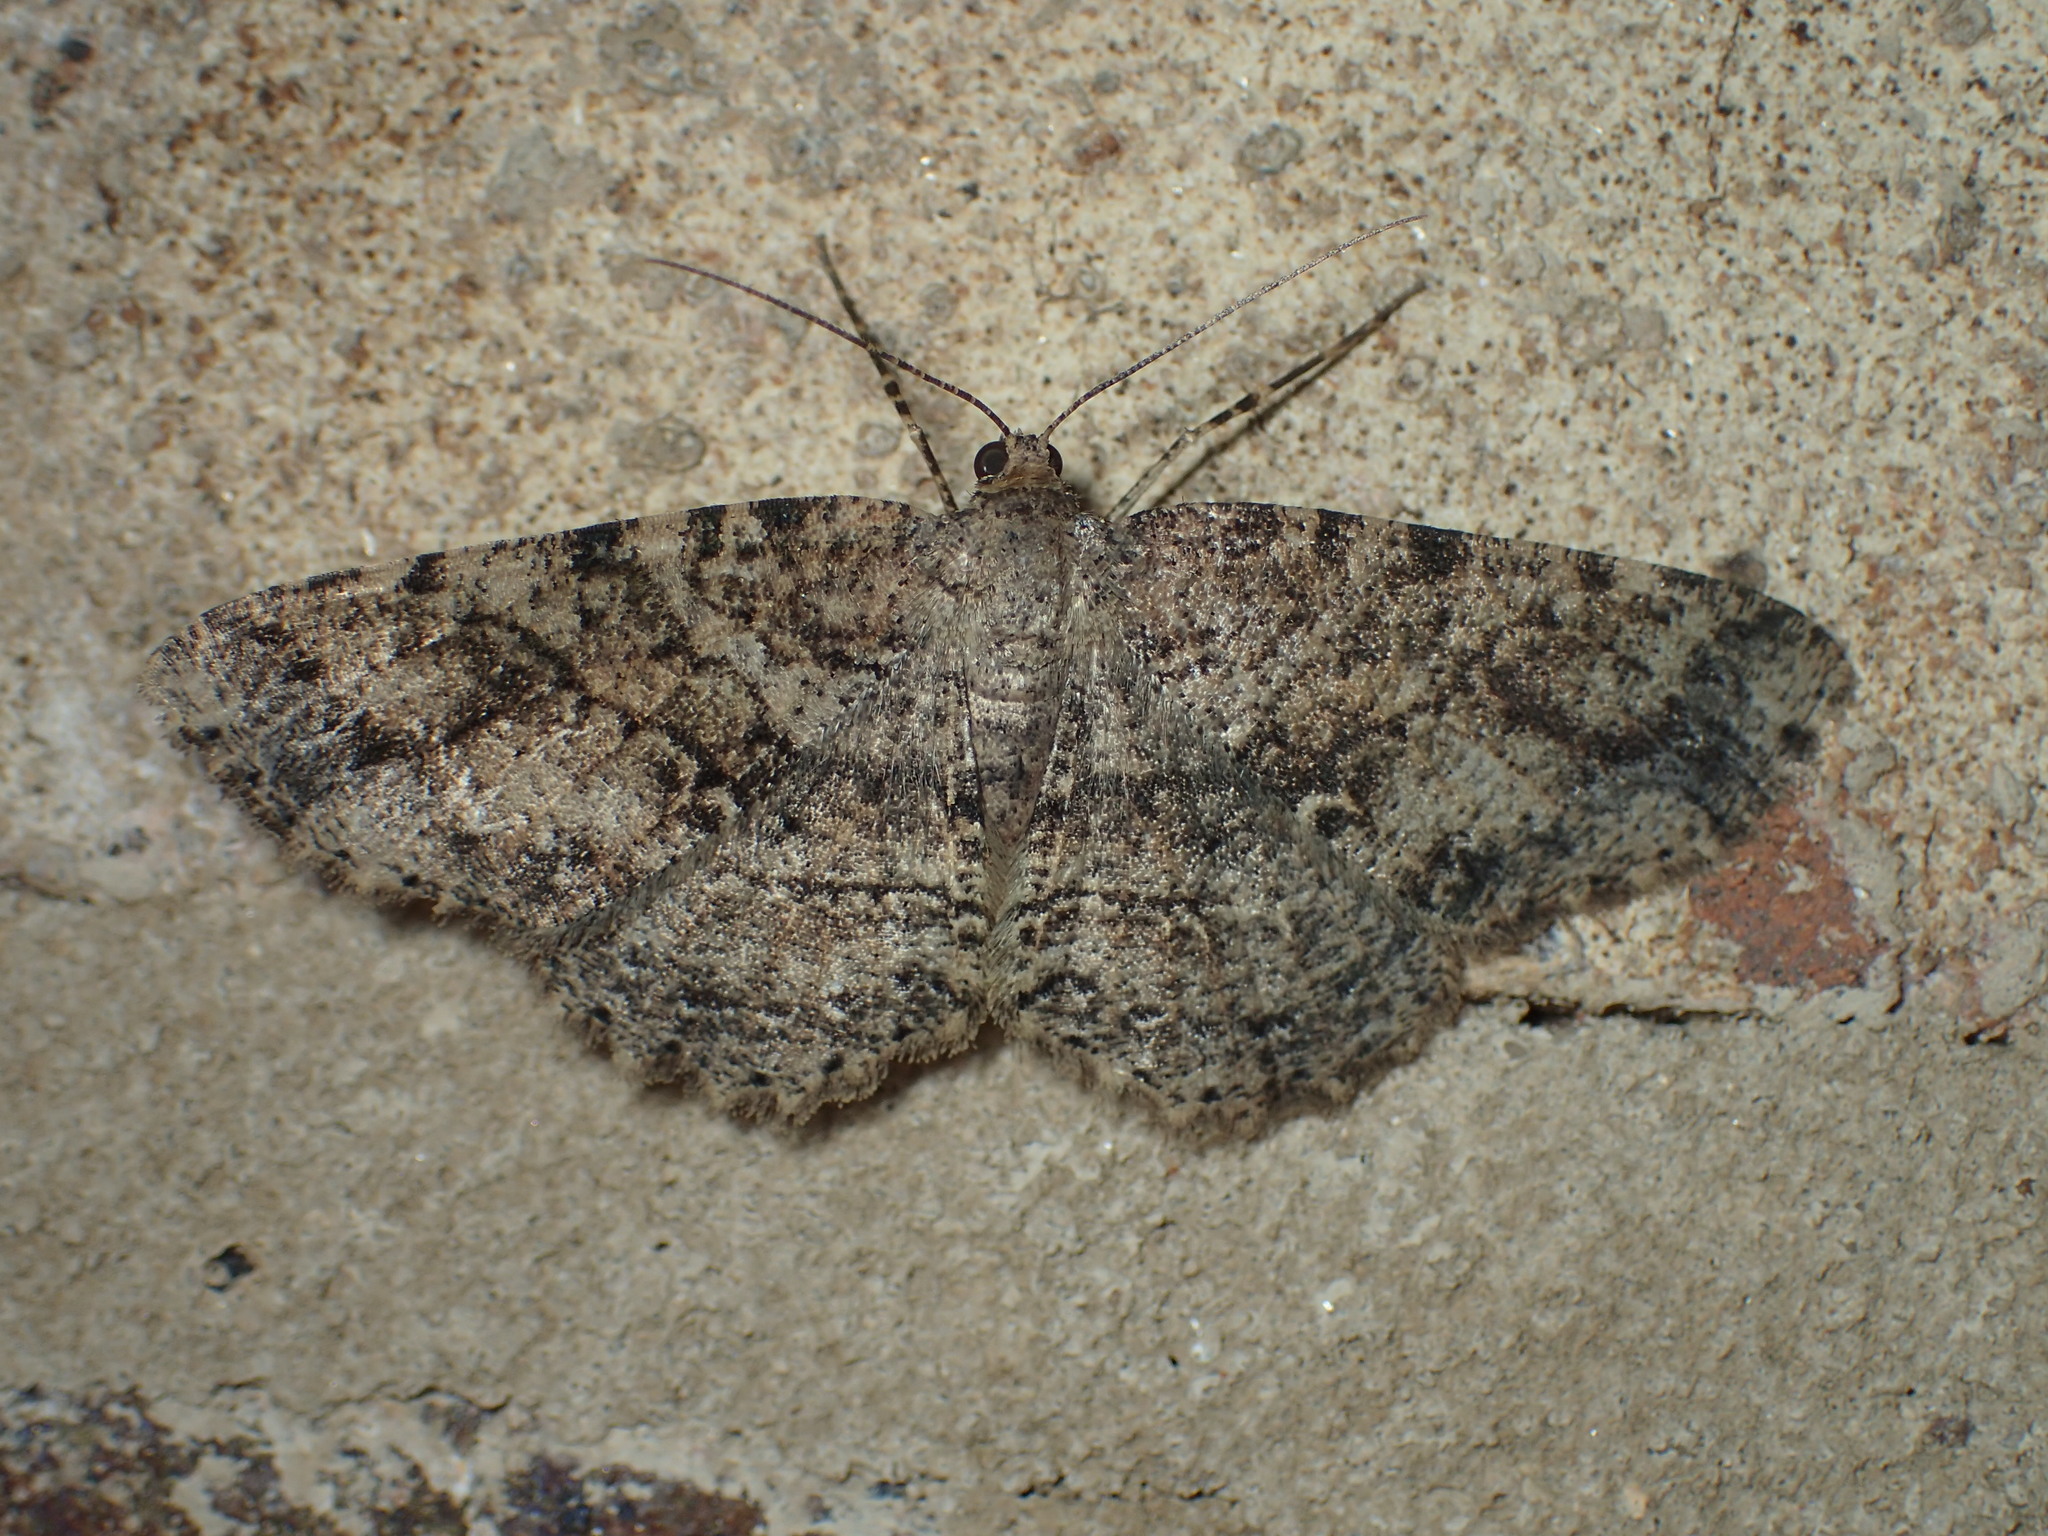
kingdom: Animalia
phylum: Arthropoda
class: Insecta
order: Lepidoptera
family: Geometridae
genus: Melanolophia
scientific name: Melanolophia canadaria
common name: Canadian melanolophia
